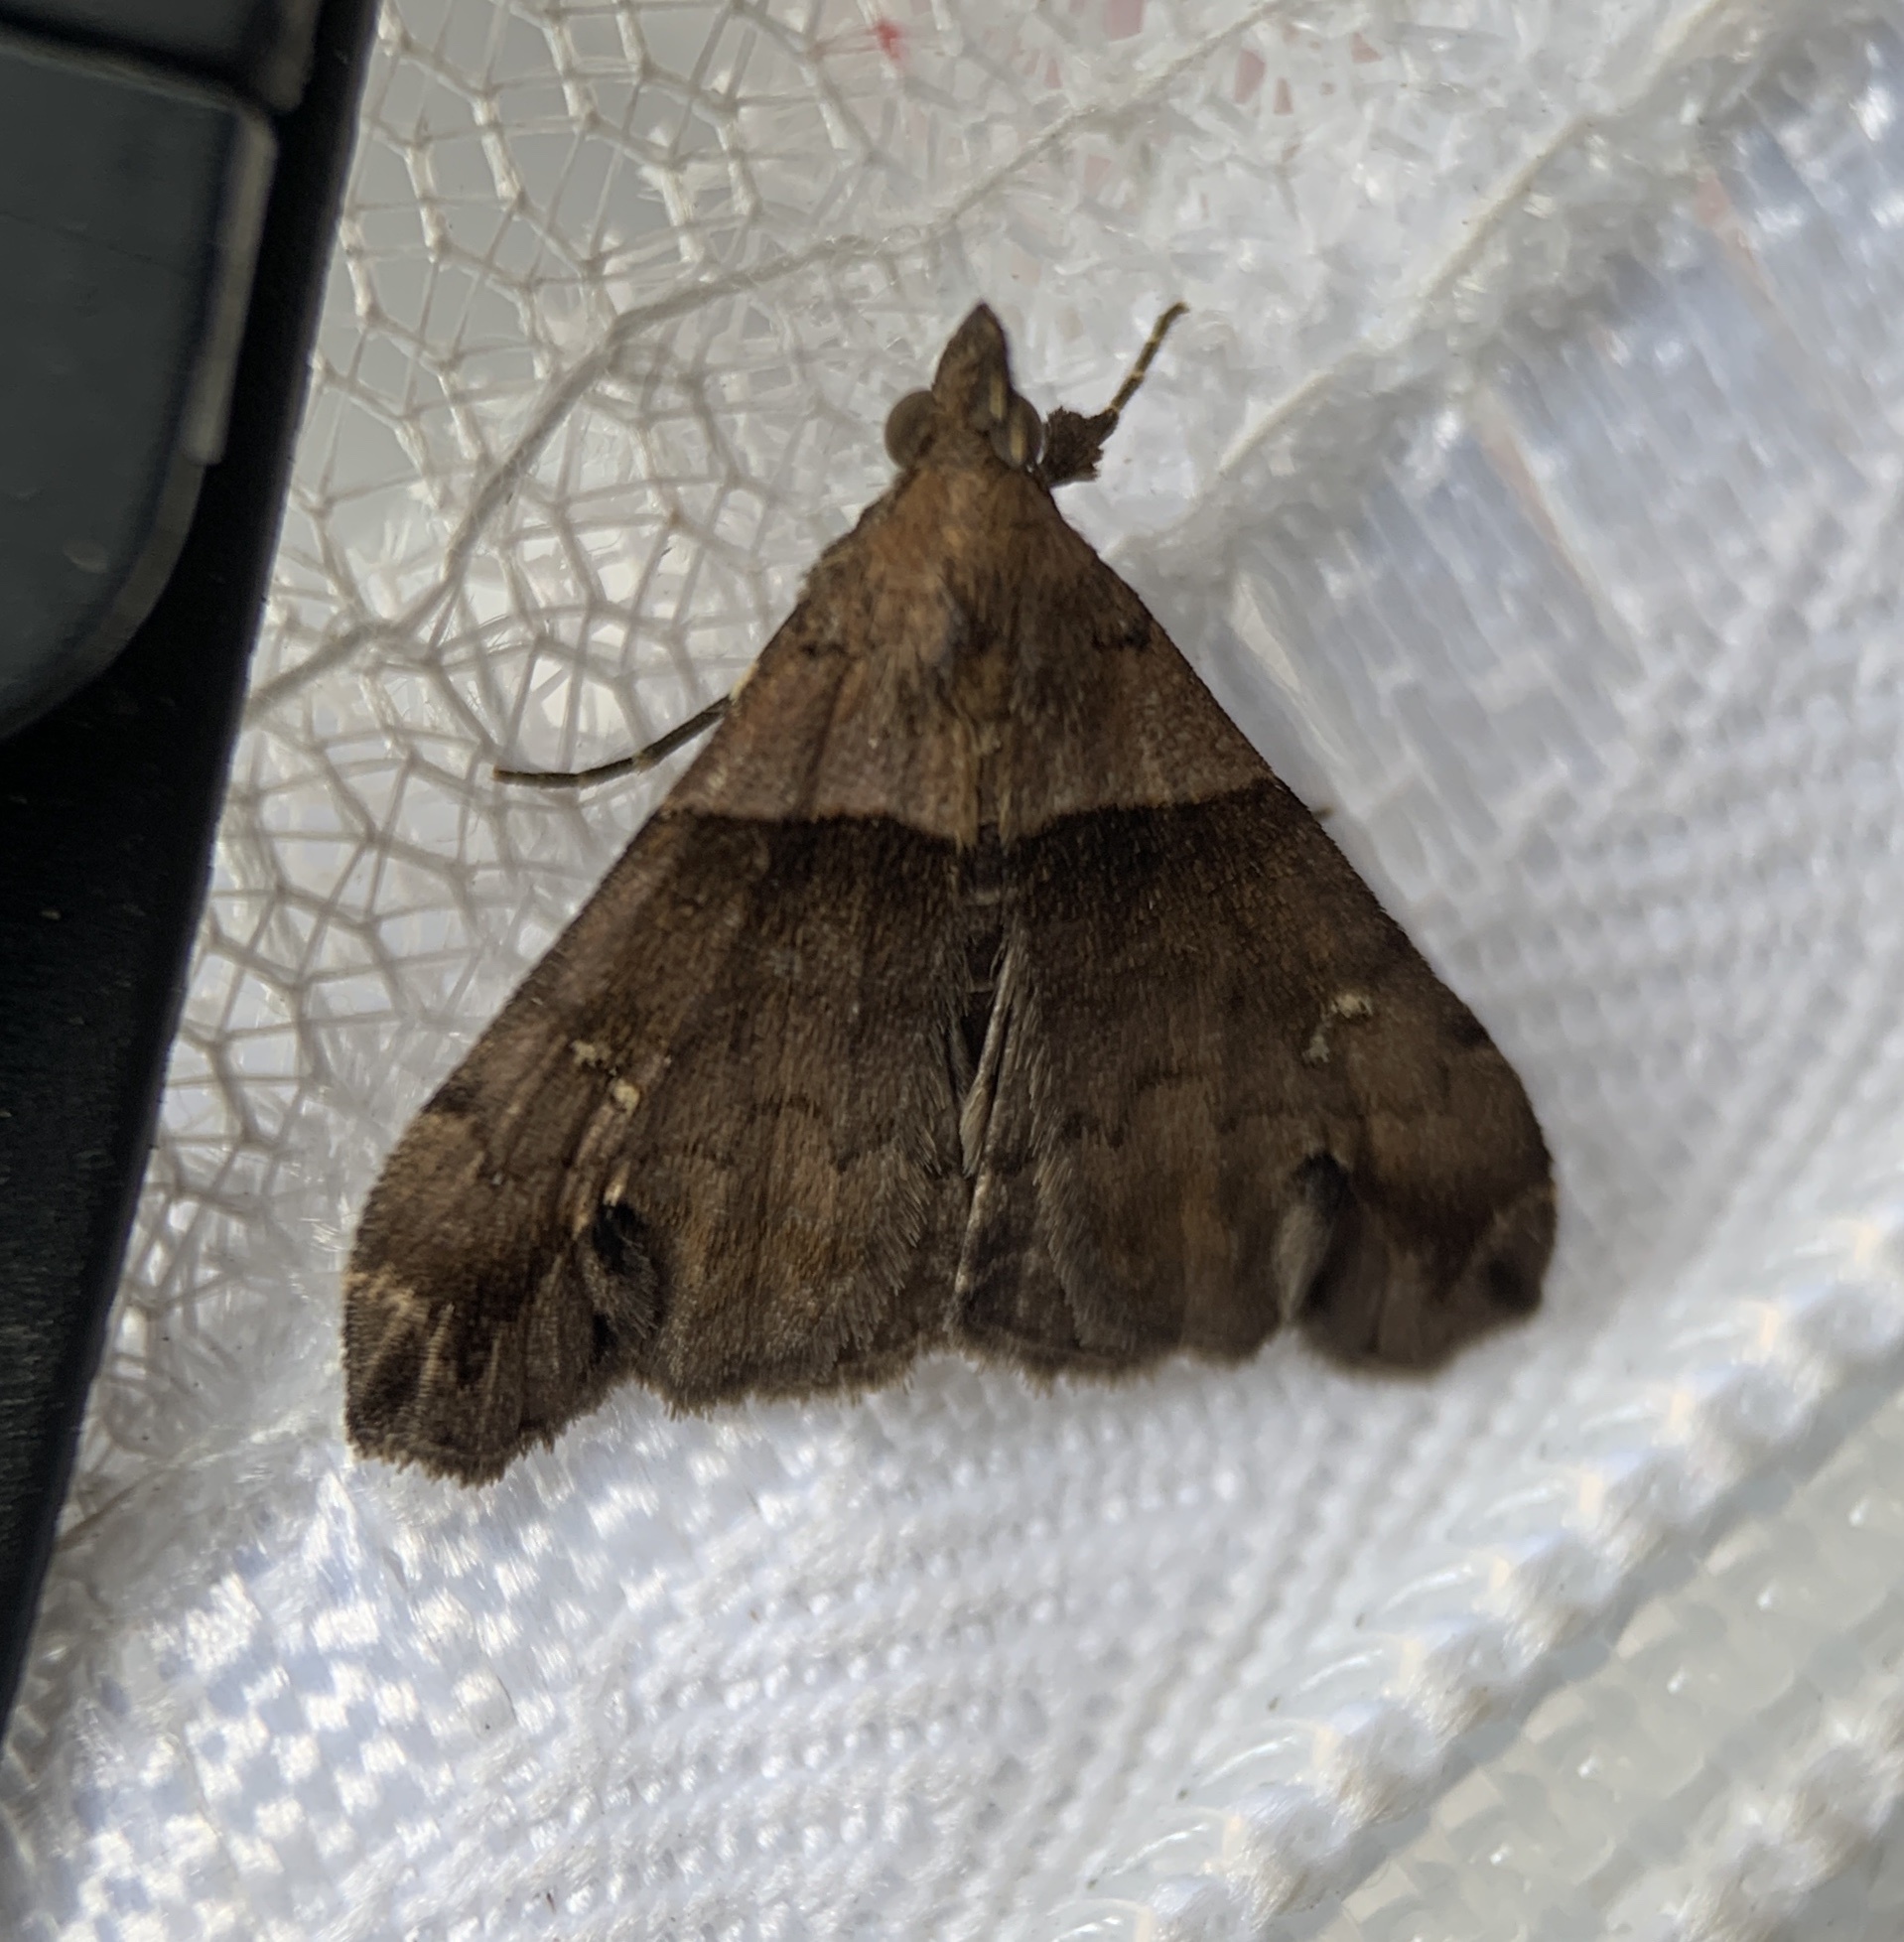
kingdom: Animalia
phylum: Arthropoda
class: Insecta
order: Lepidoptera
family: Erebidae
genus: Lascoria
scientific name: Lascoria ambigualis
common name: Ambiguous moth
